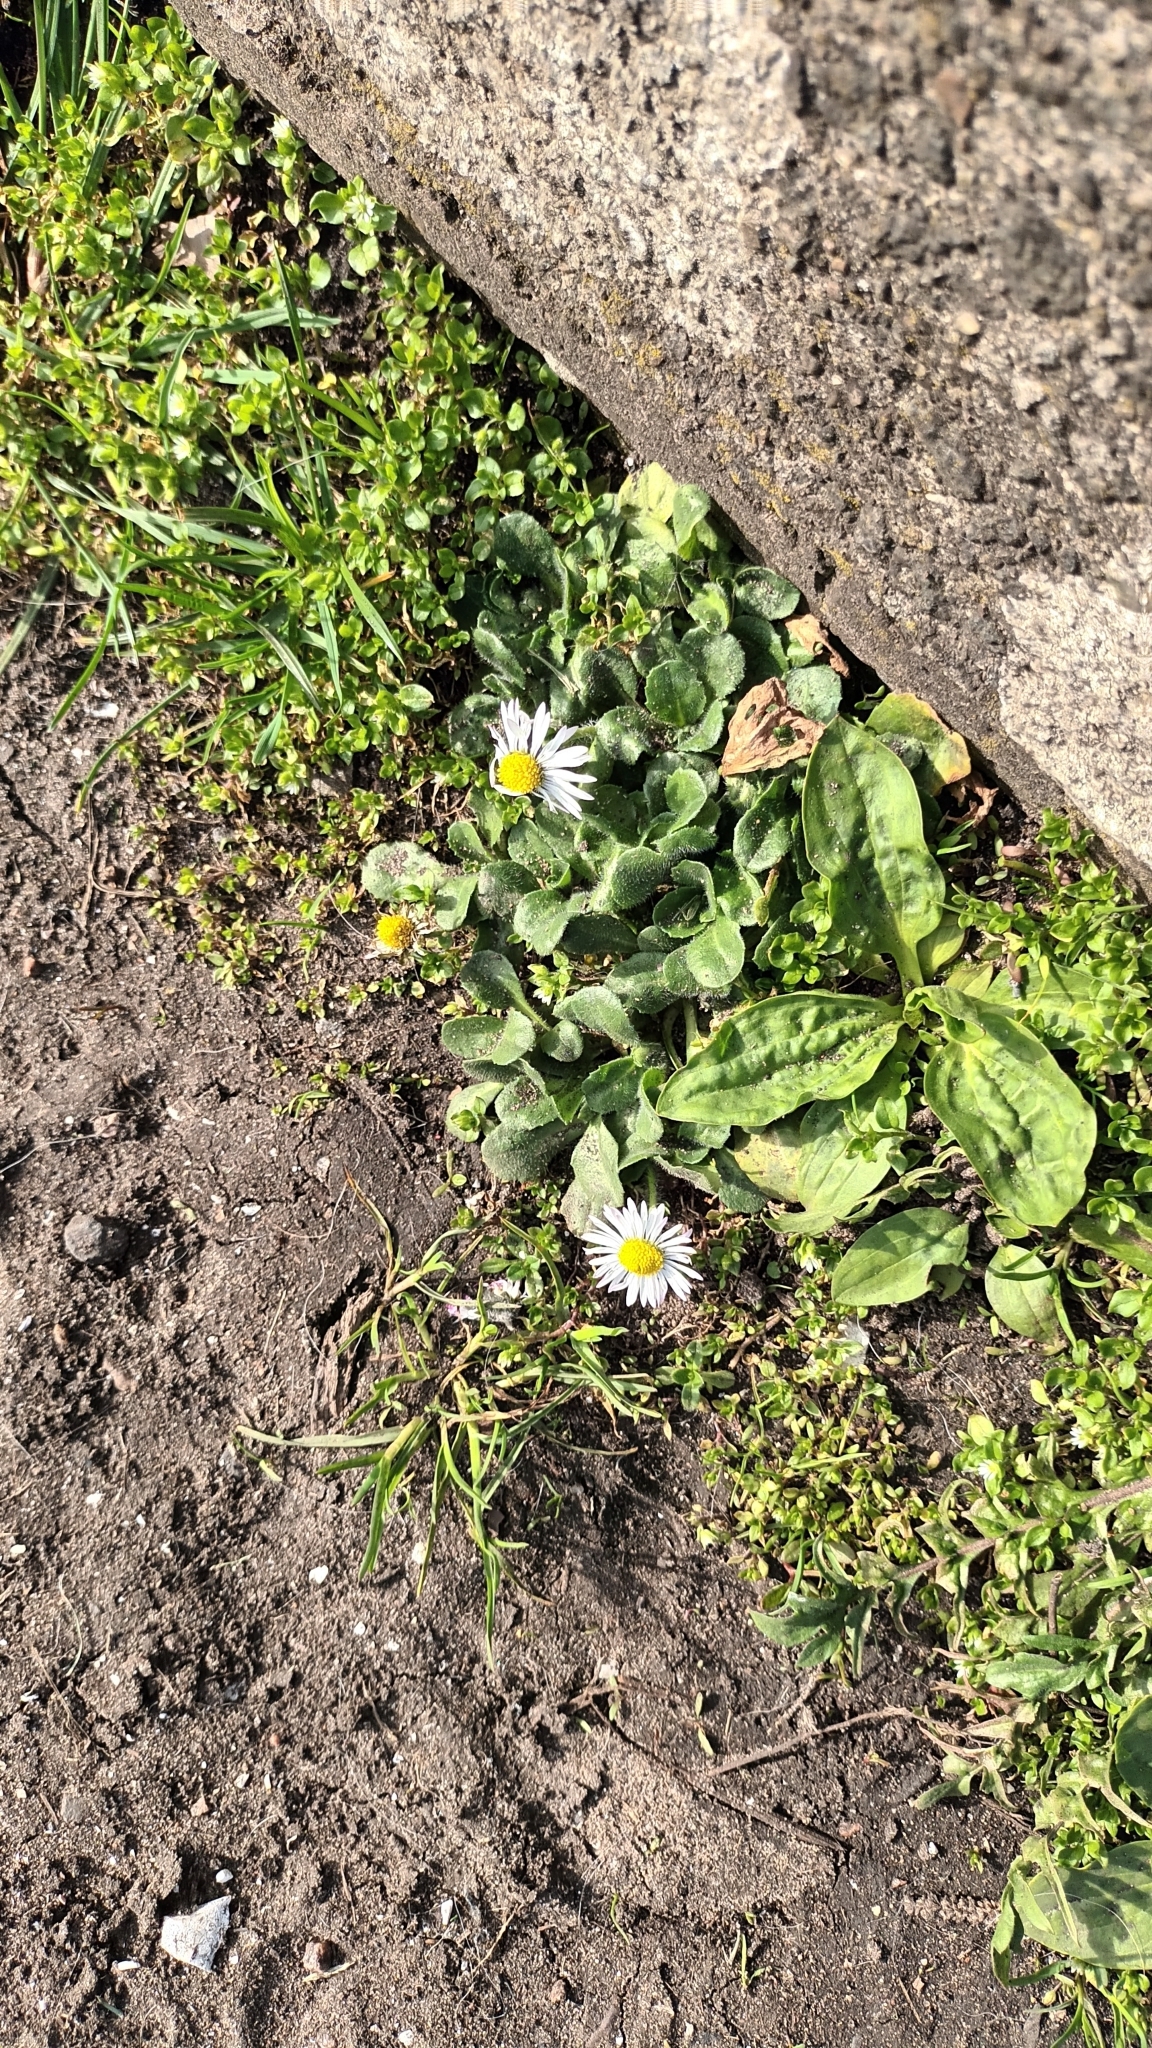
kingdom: Plantae
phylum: Tracheophyta
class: Magnoliopsida
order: Asterales
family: Asteraceae
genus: Bellis
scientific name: Bellis perennis
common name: Lawndaisy
